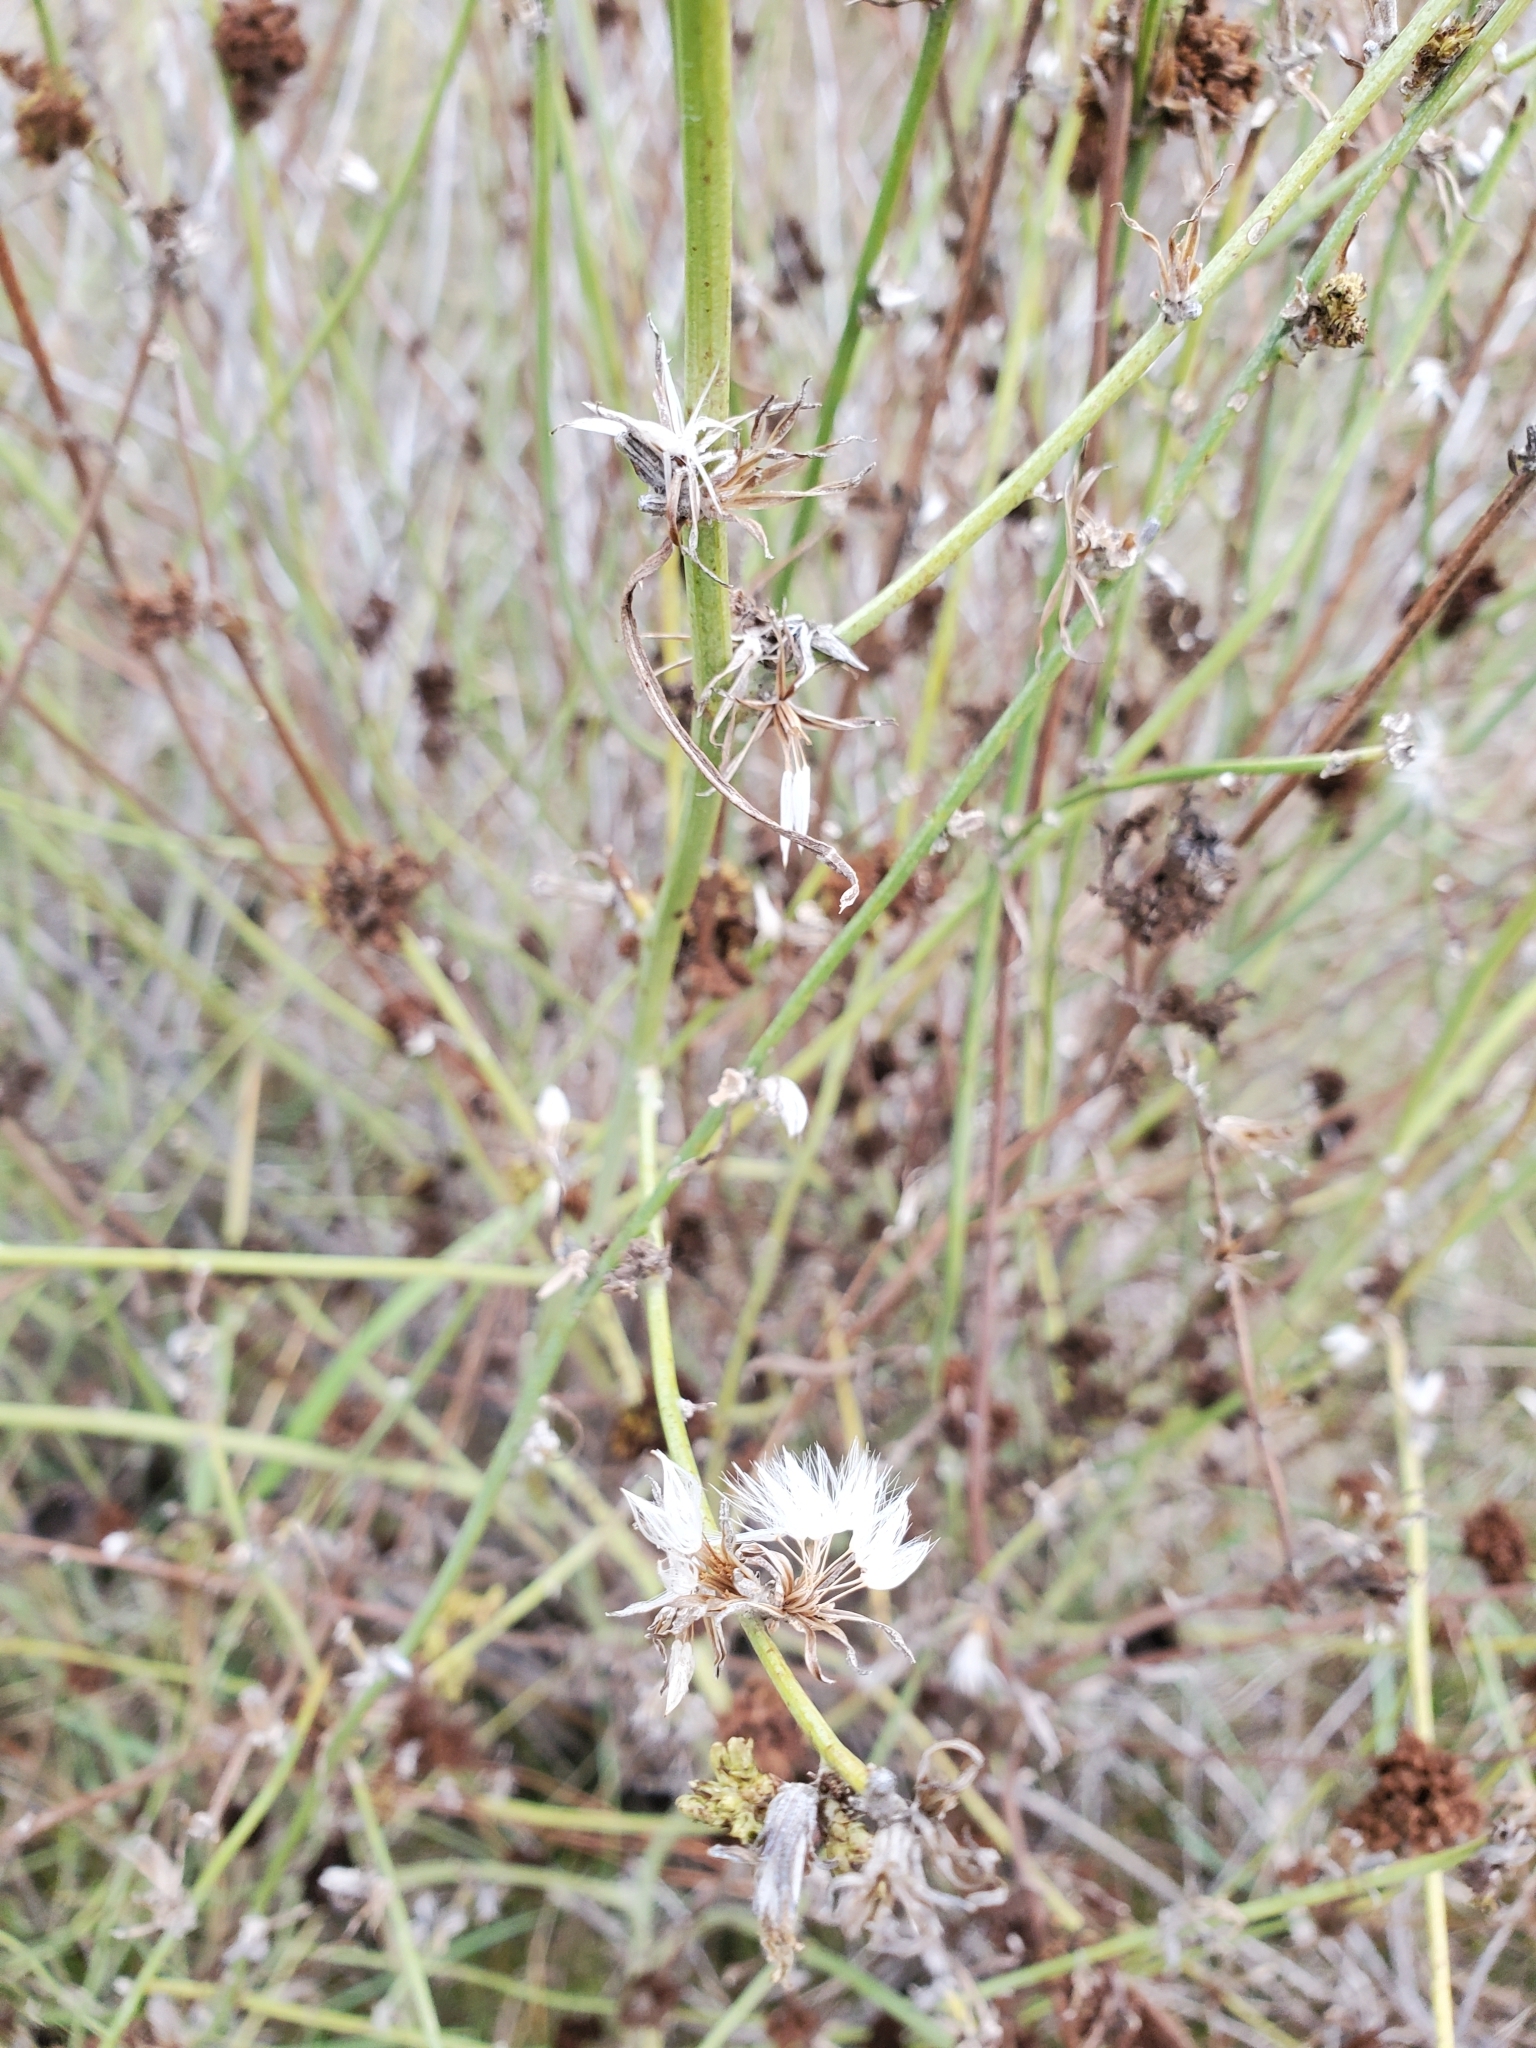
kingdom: Plantae
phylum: Tracheophyta
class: Magnoliopsida
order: Asterales
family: Asteraceae
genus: Chondrilla
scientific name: Chondrilla juncea
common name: Skeleton weed
